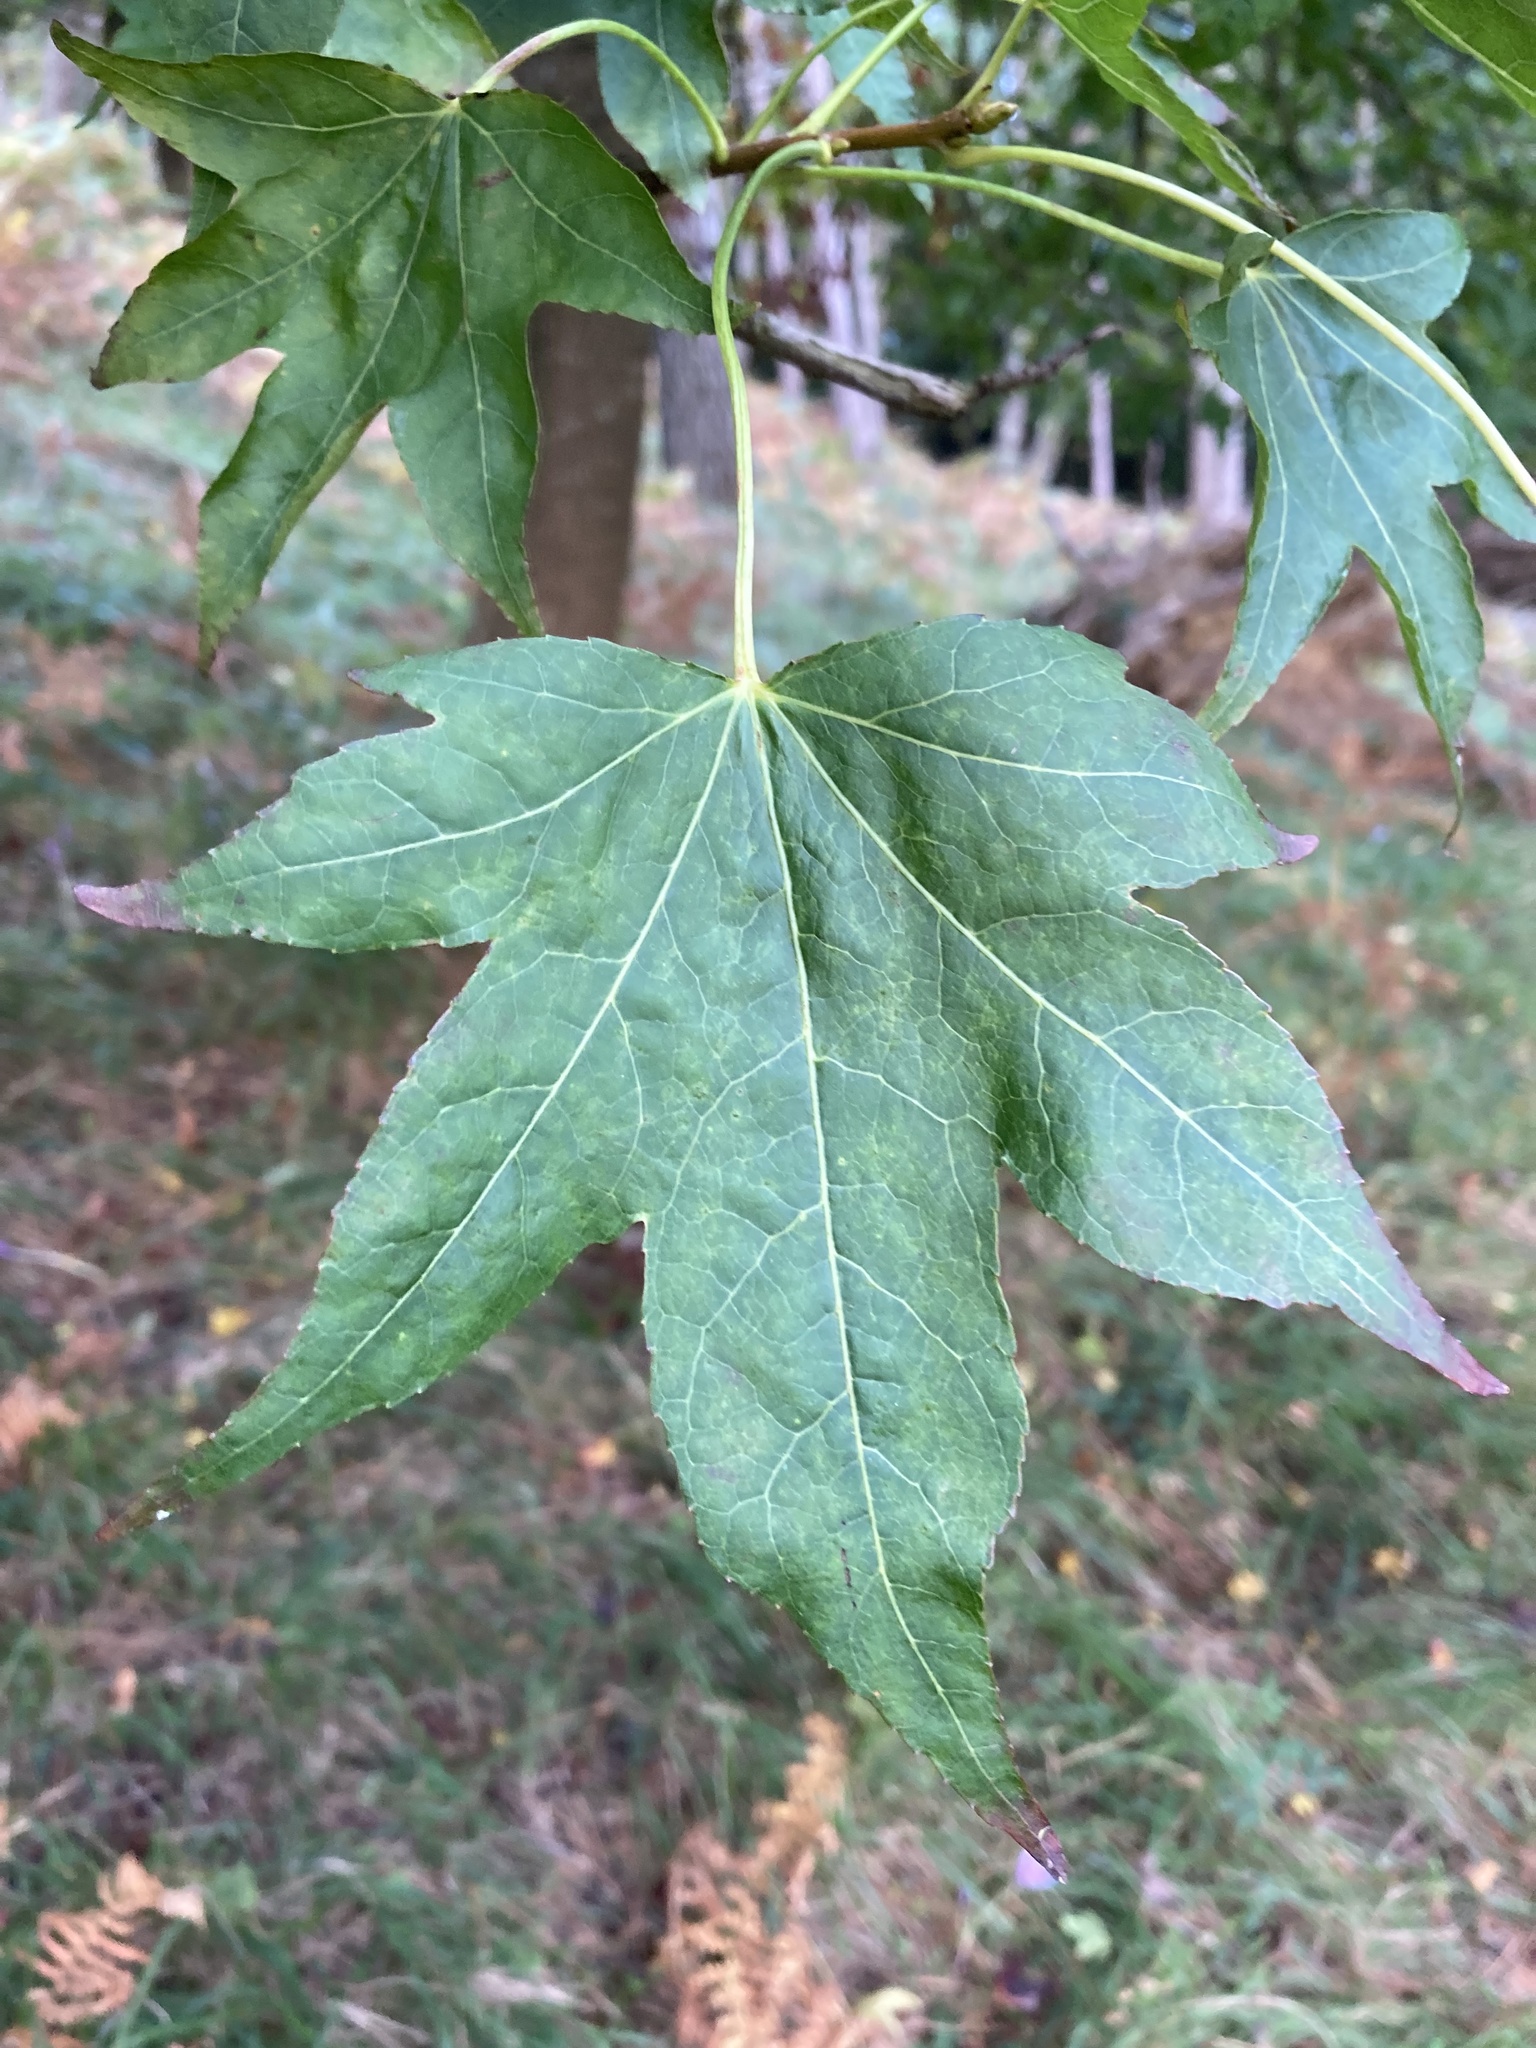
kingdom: Plantae
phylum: Tracheophyta
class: Magnoliopsida
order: Saxifragales
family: Altingiaceae
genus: Liquidambar
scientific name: Liquidambar styraciflua
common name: Sweet gum
